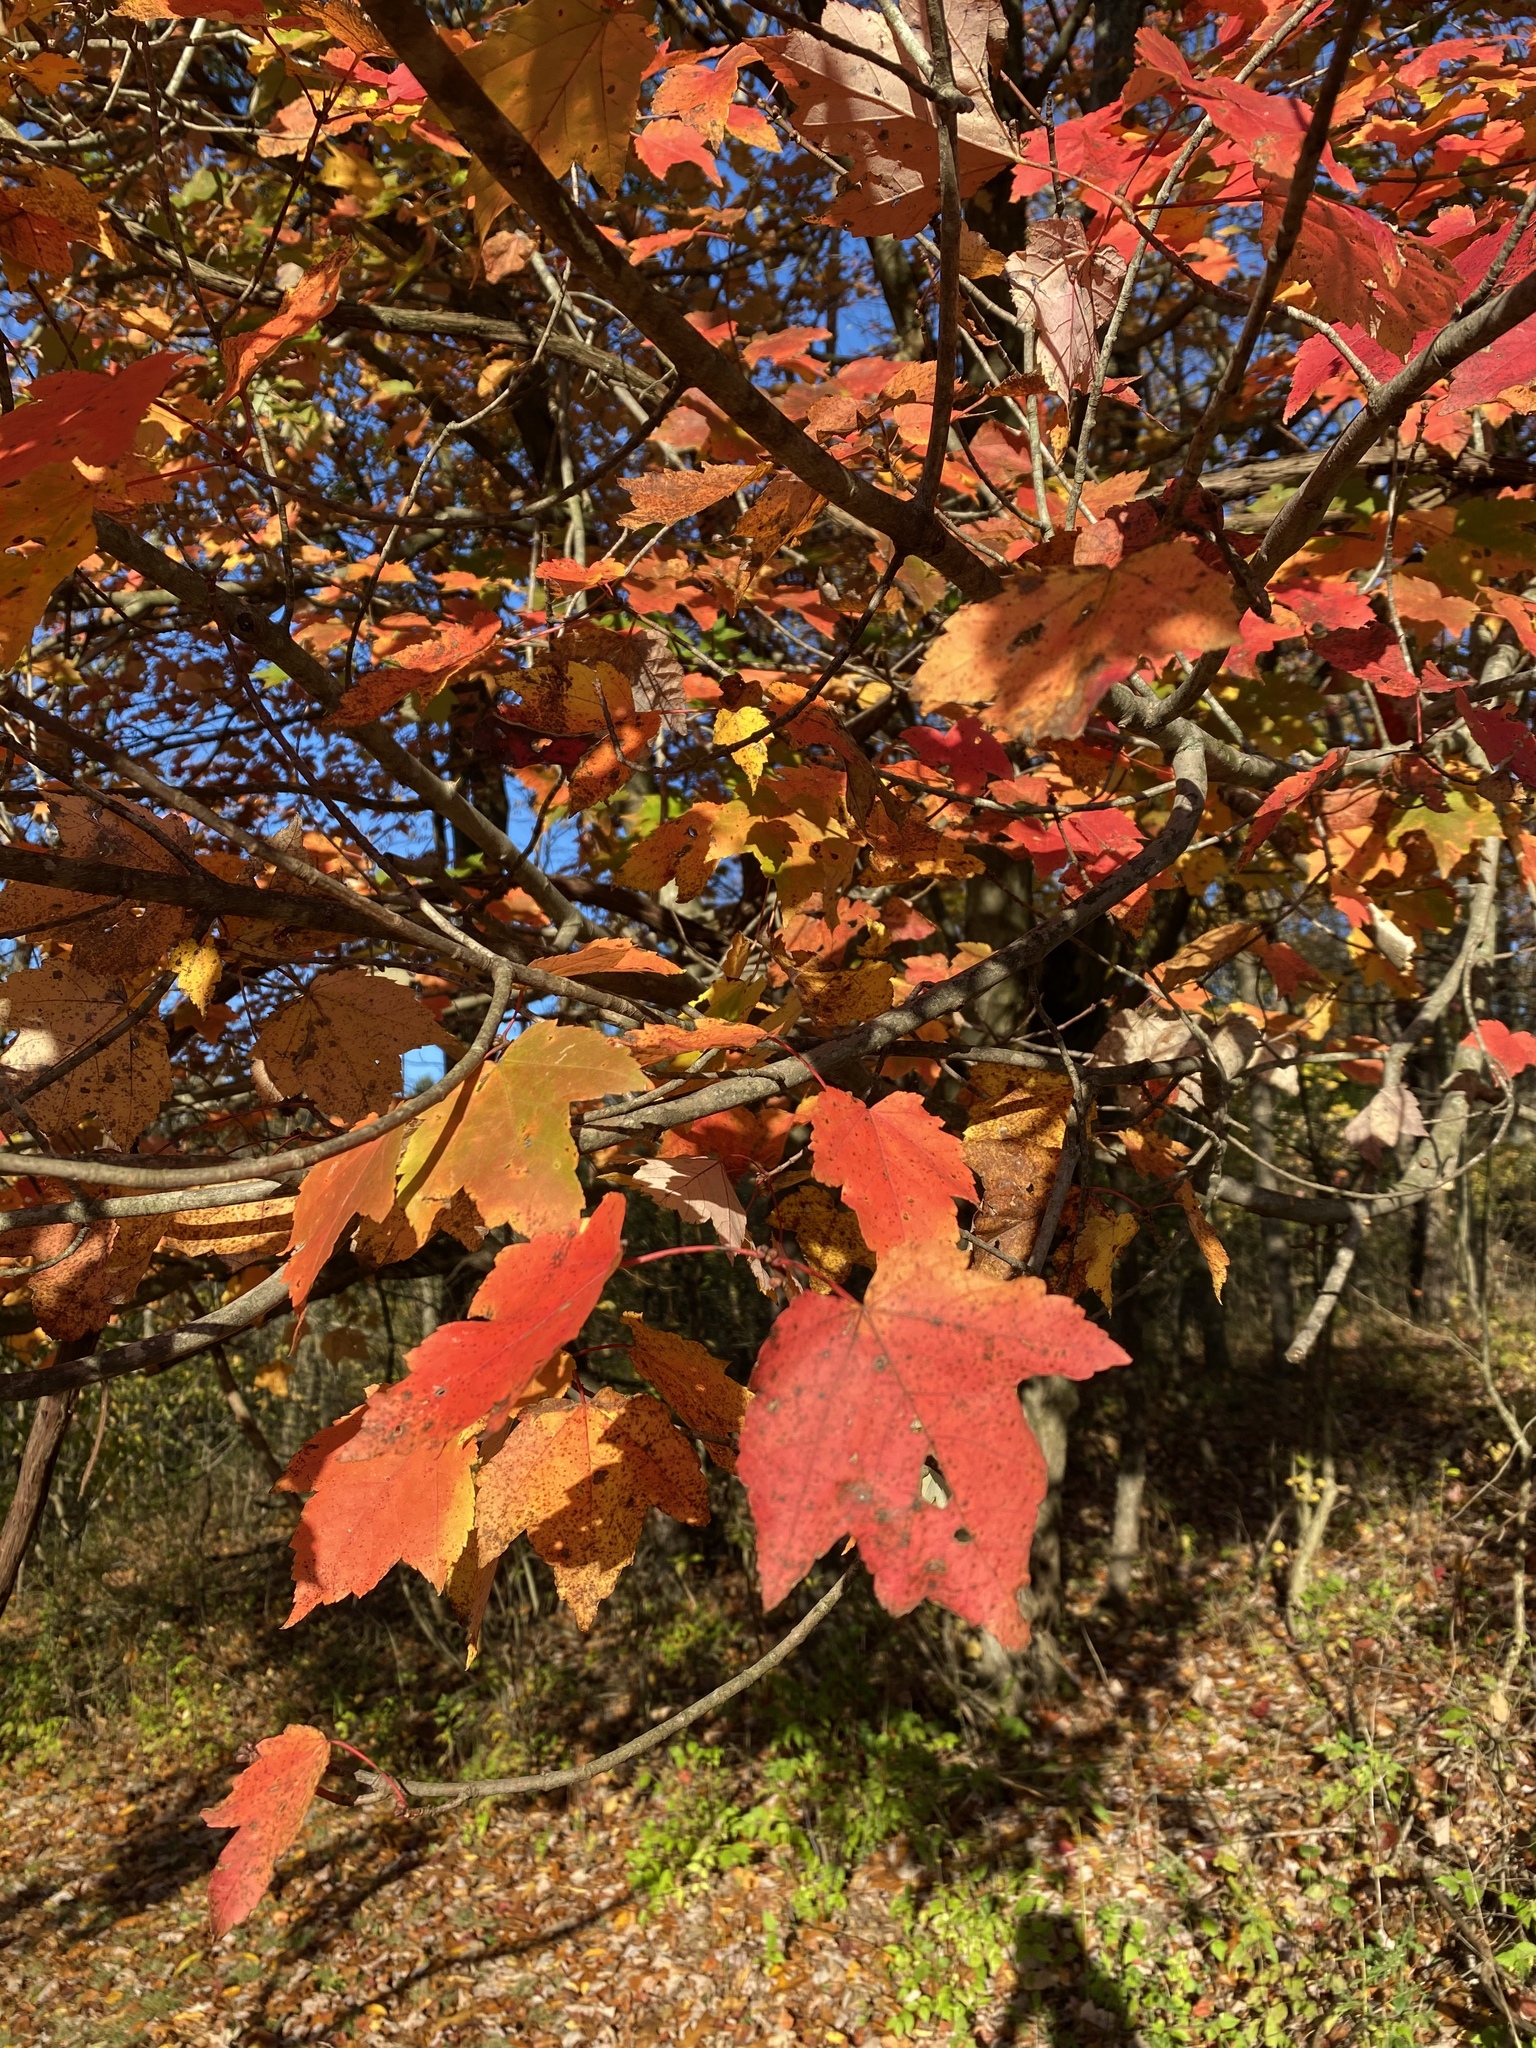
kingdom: Plantae
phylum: Tracheophyta
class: Magnoliopsida
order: Sapindales
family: Sapindaceae
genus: Acer
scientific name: Acer rubrum
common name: Red maple
